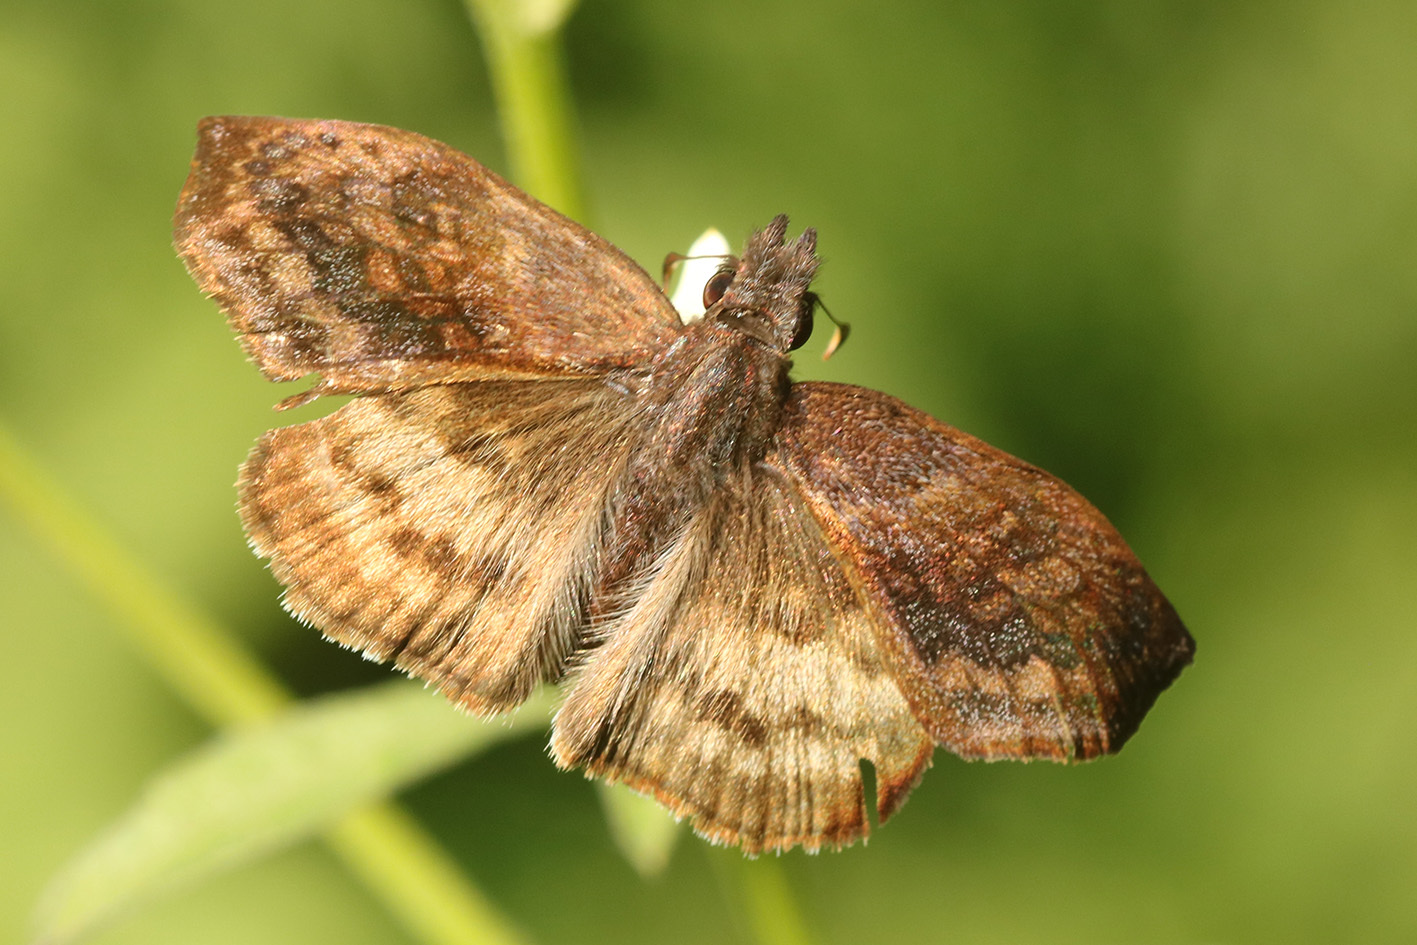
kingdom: Animalia
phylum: Arthropoda
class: Insecta
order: Lepidoptera
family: Hesperiidae
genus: Theagenes
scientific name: Theagenes dichrous
